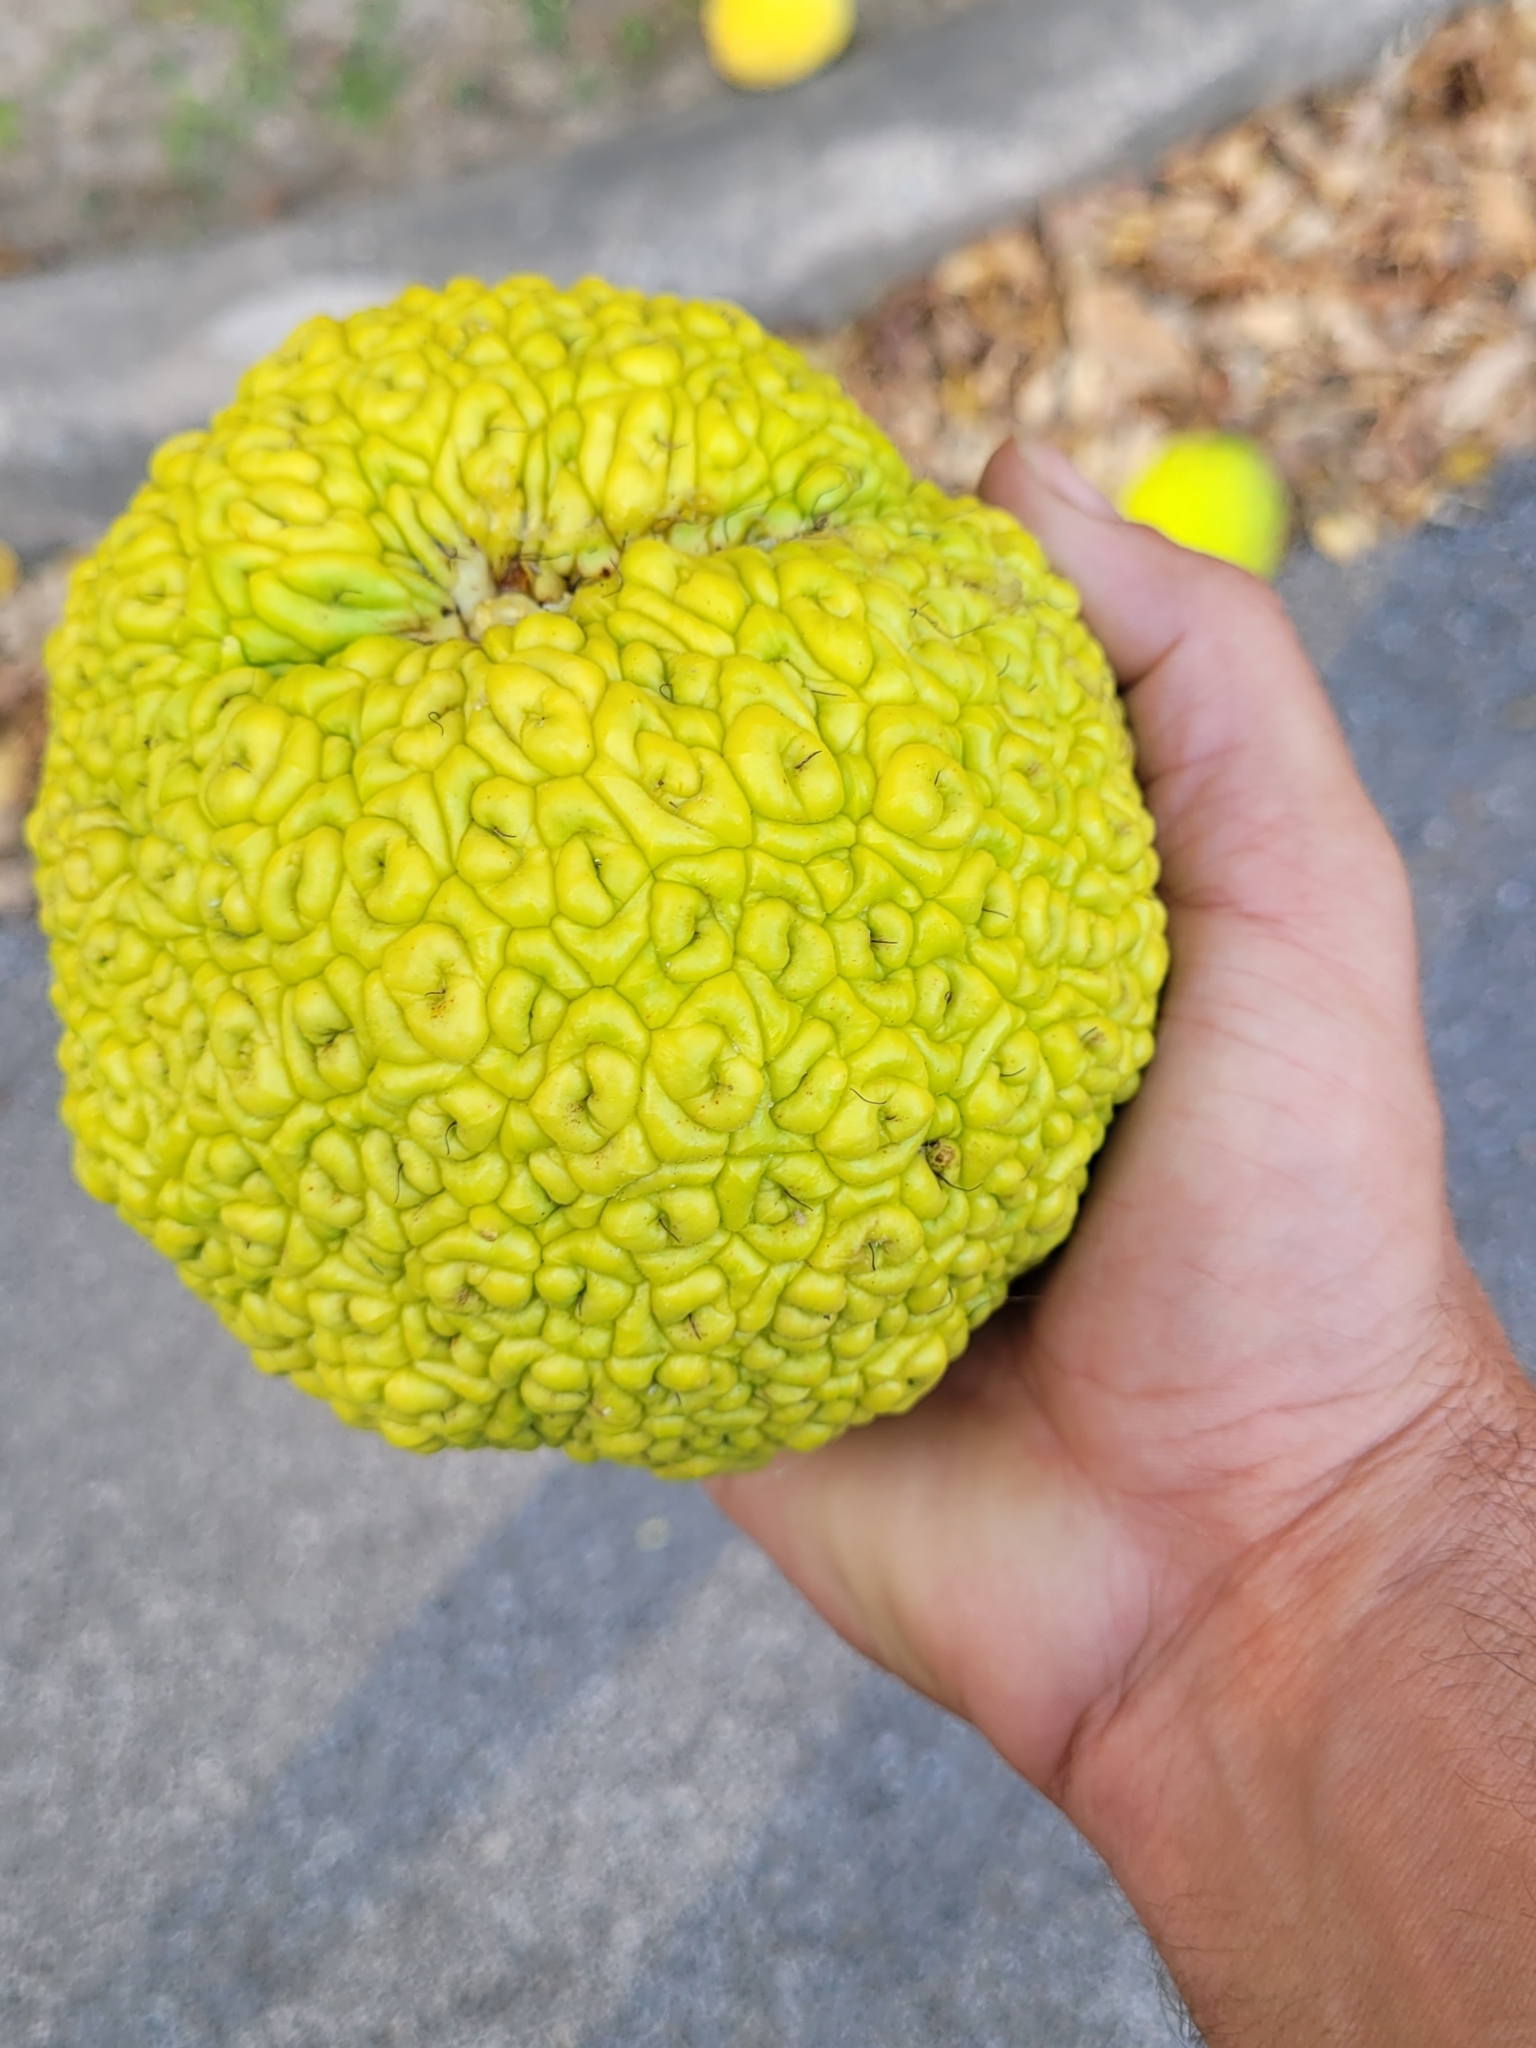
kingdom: Plantae
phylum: Tracheophyta
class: Magnoliopsida
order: Rosales
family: Moraceae
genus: Maclura
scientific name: Maclura pomifera
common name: Osage-orange
